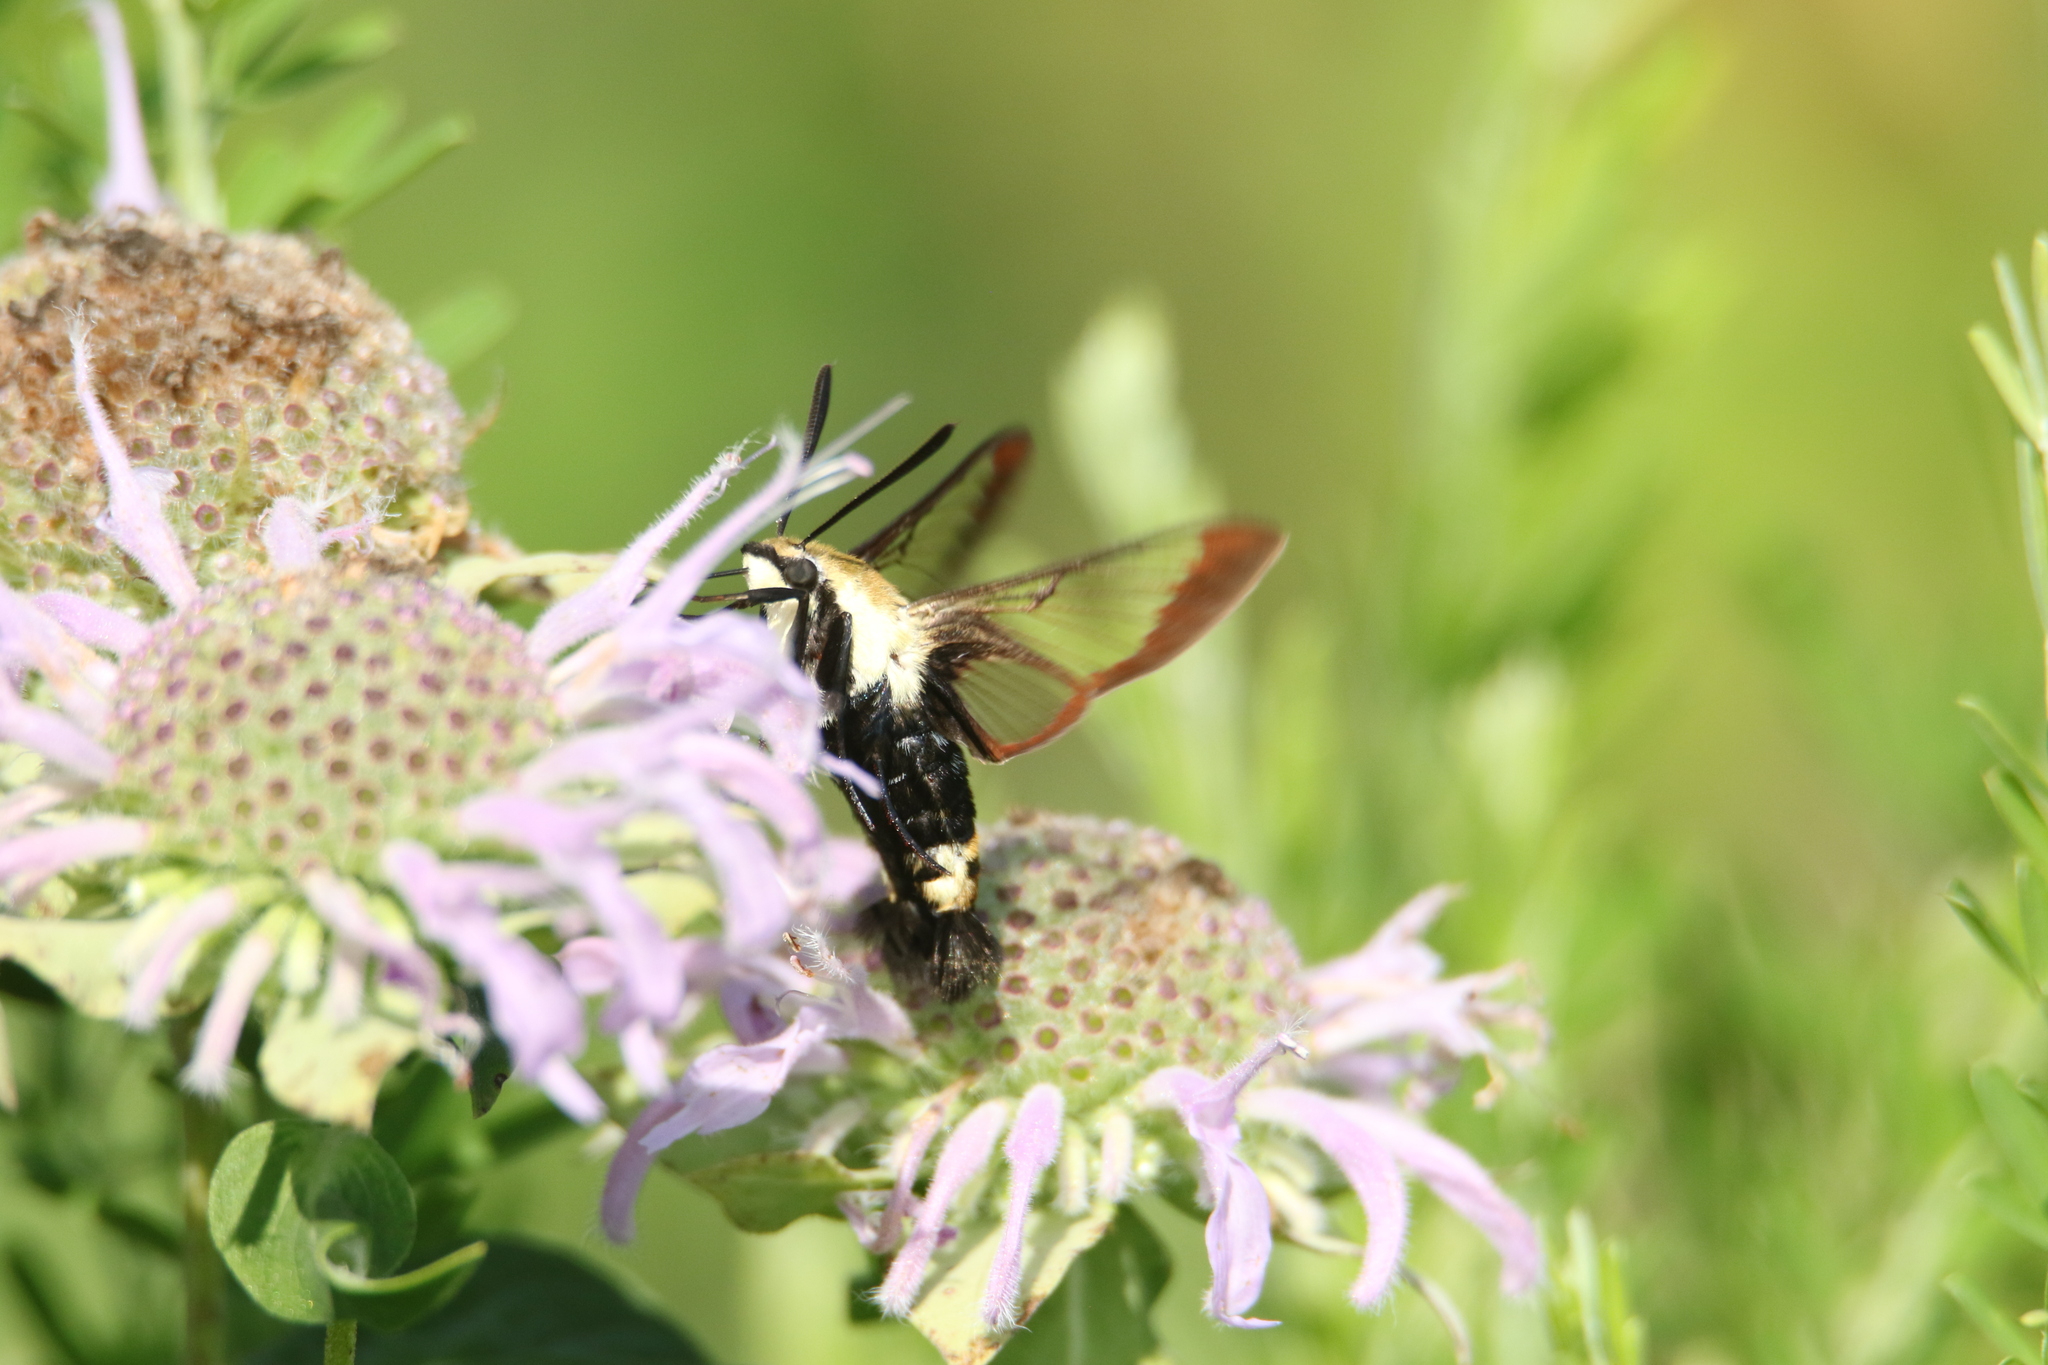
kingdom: Animalia
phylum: Arthropoda
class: Insecta
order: Lepidoptera
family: Sphingidae
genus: Hemaris
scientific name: Hemaris diffinis
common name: Bumblebee moth
